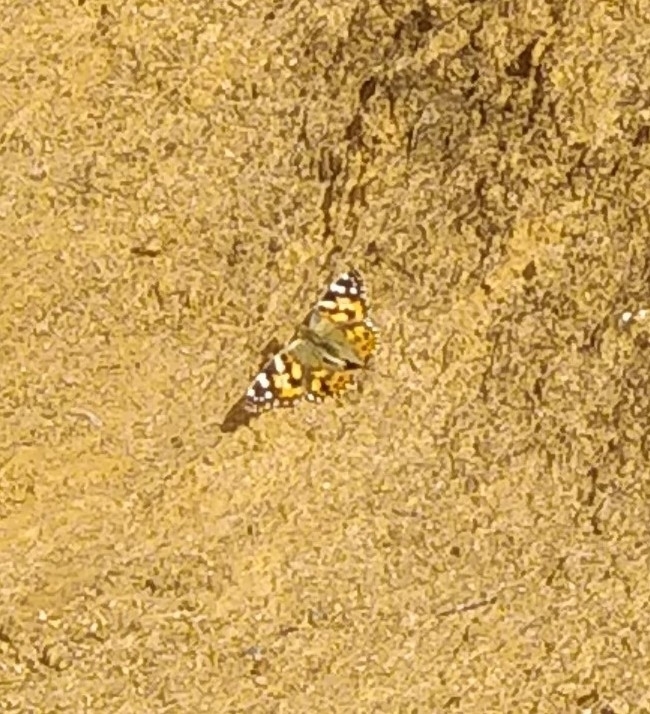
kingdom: Animalia
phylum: Arthropoda
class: Insecta
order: Lepidoptera
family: Nymphalidae
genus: Vanessa
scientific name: Vanessa cardui
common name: Painted lady
